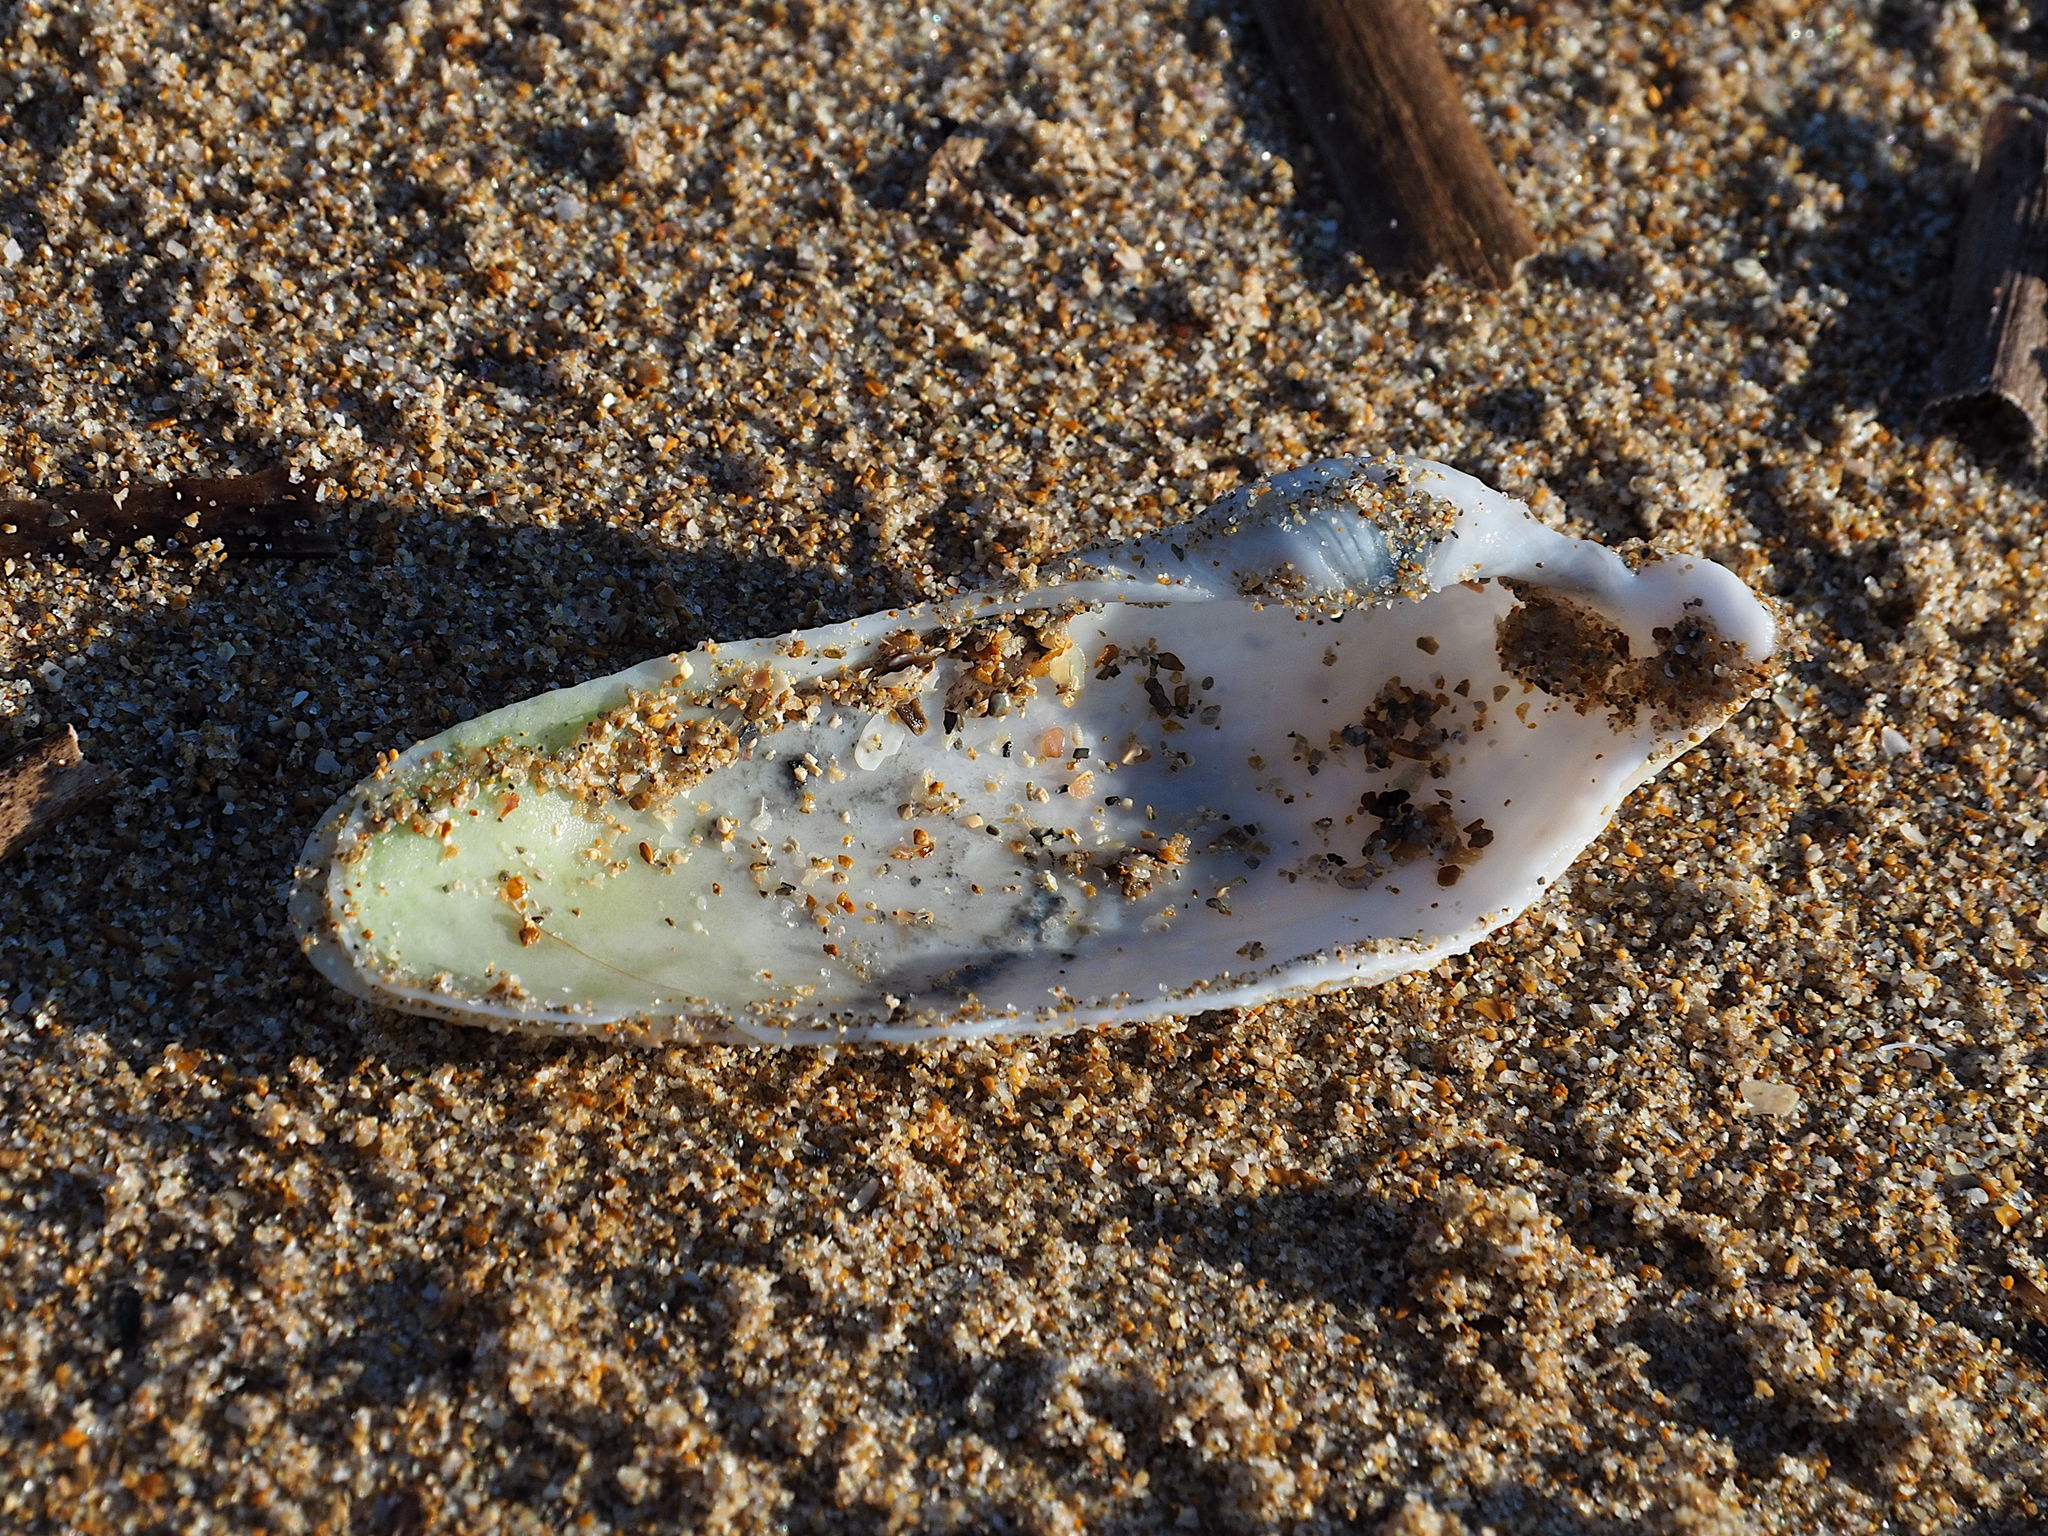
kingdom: Animalia
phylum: Mollusca
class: Bivalvia
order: Myida
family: Pholadidae
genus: Pholas
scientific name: Pholas dactylus
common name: Common piddock
